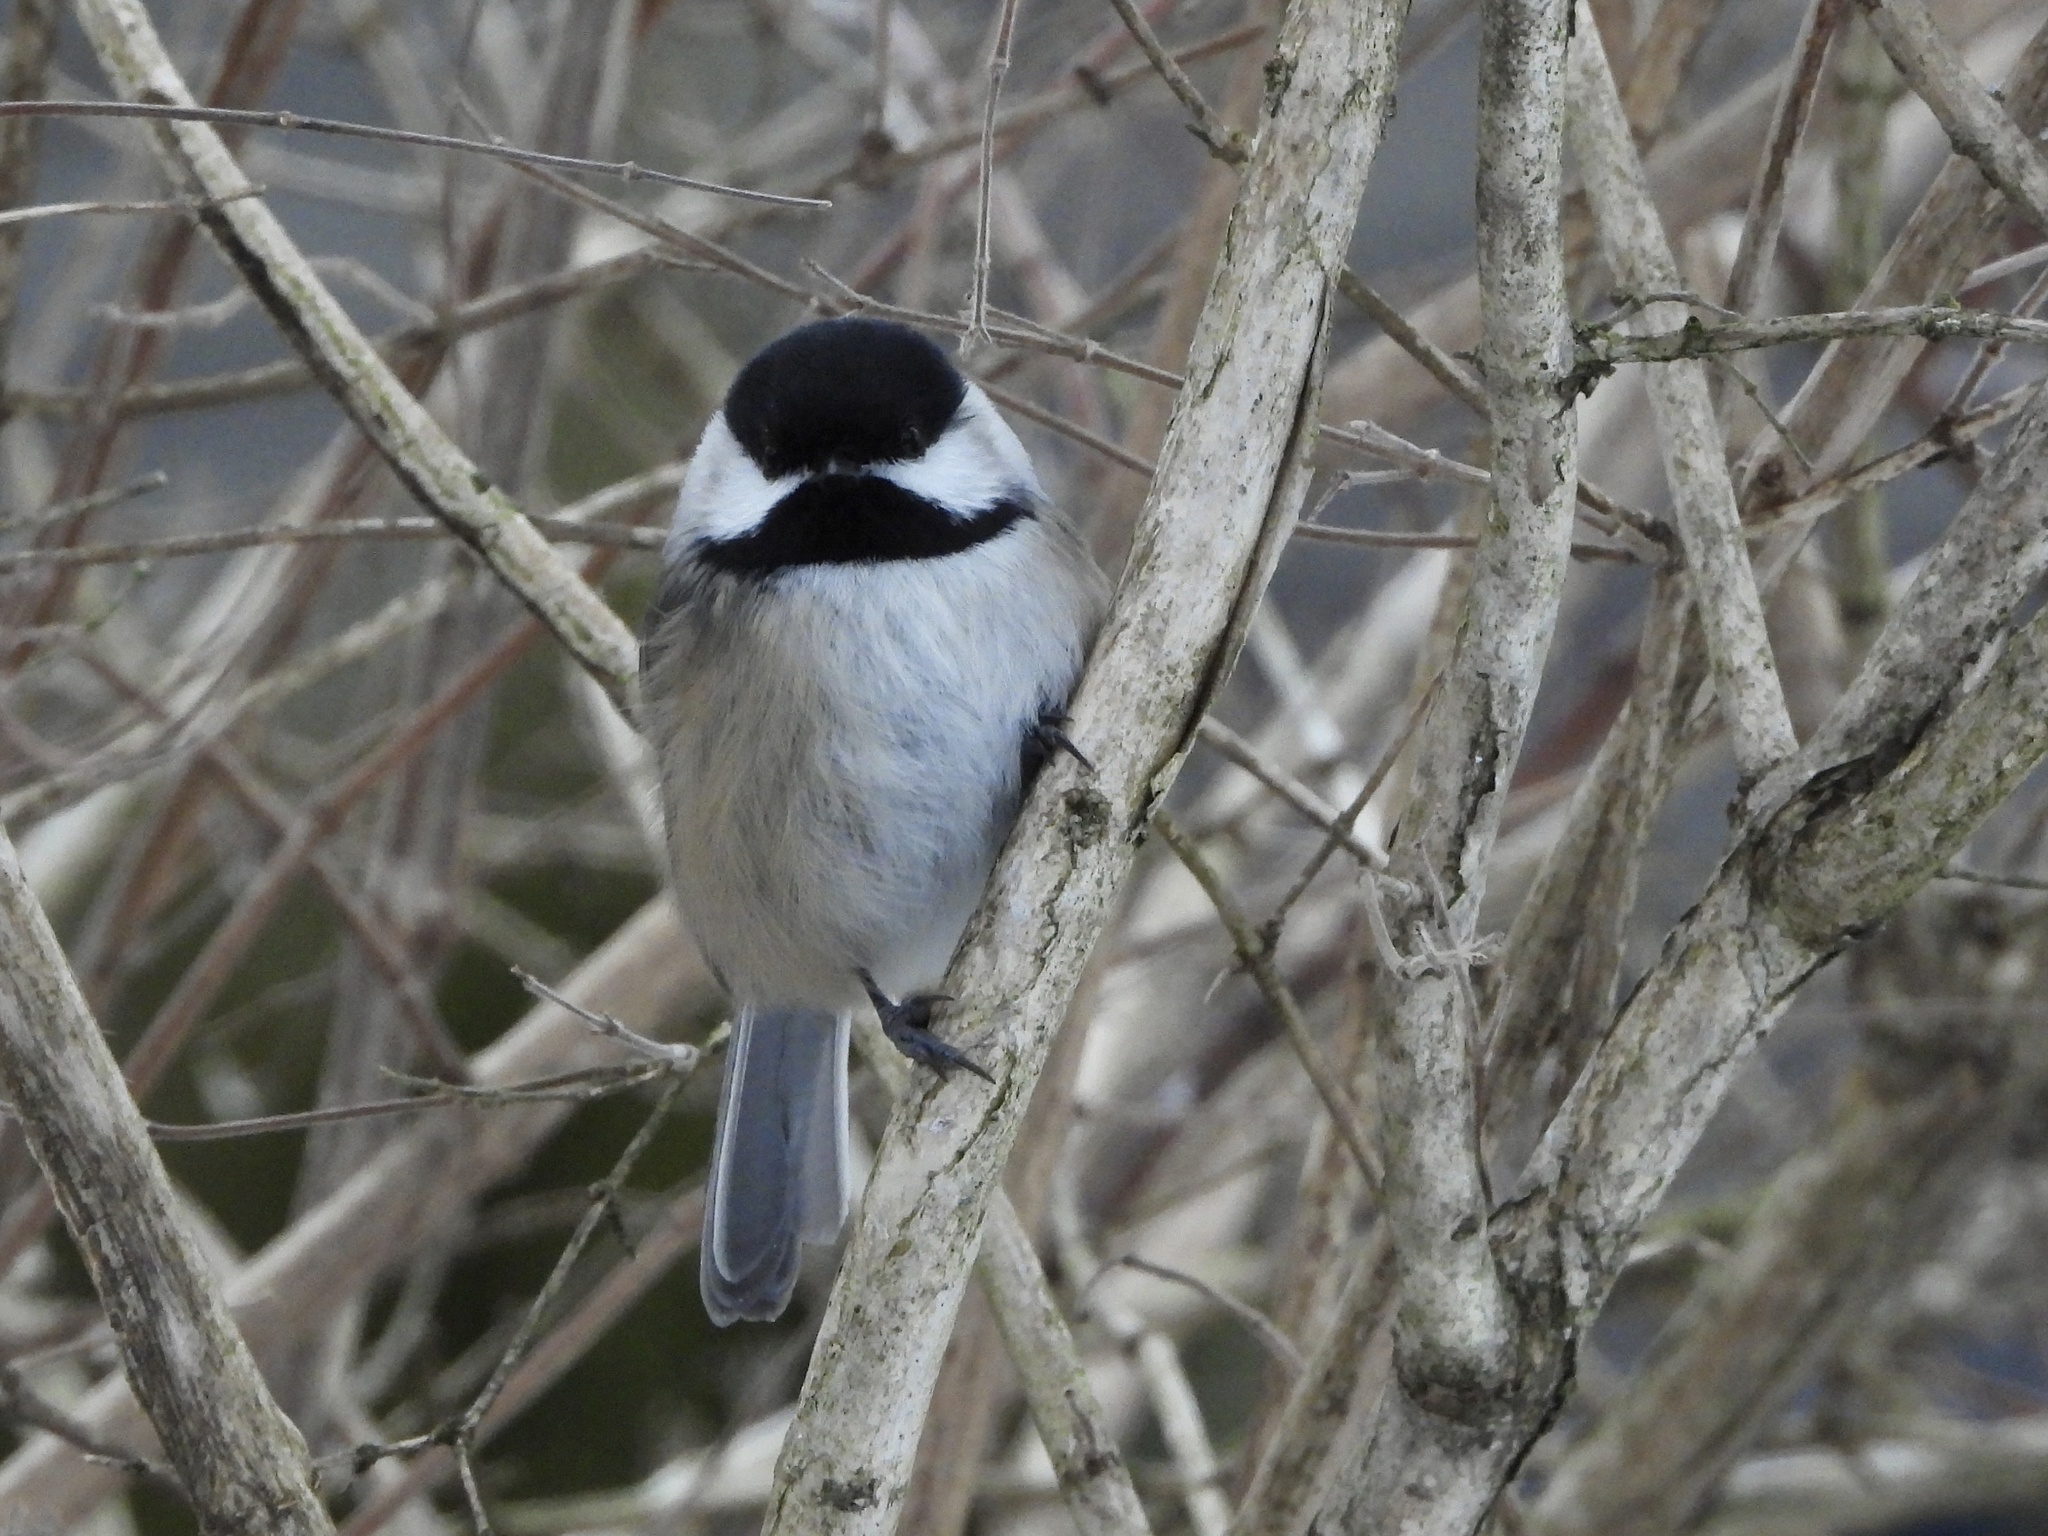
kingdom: Animalia
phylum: Chordata
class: Aves
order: Passeriformes
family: Paridae
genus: Poecile
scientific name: Poecile atricapillus
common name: Black-capped chickadee
